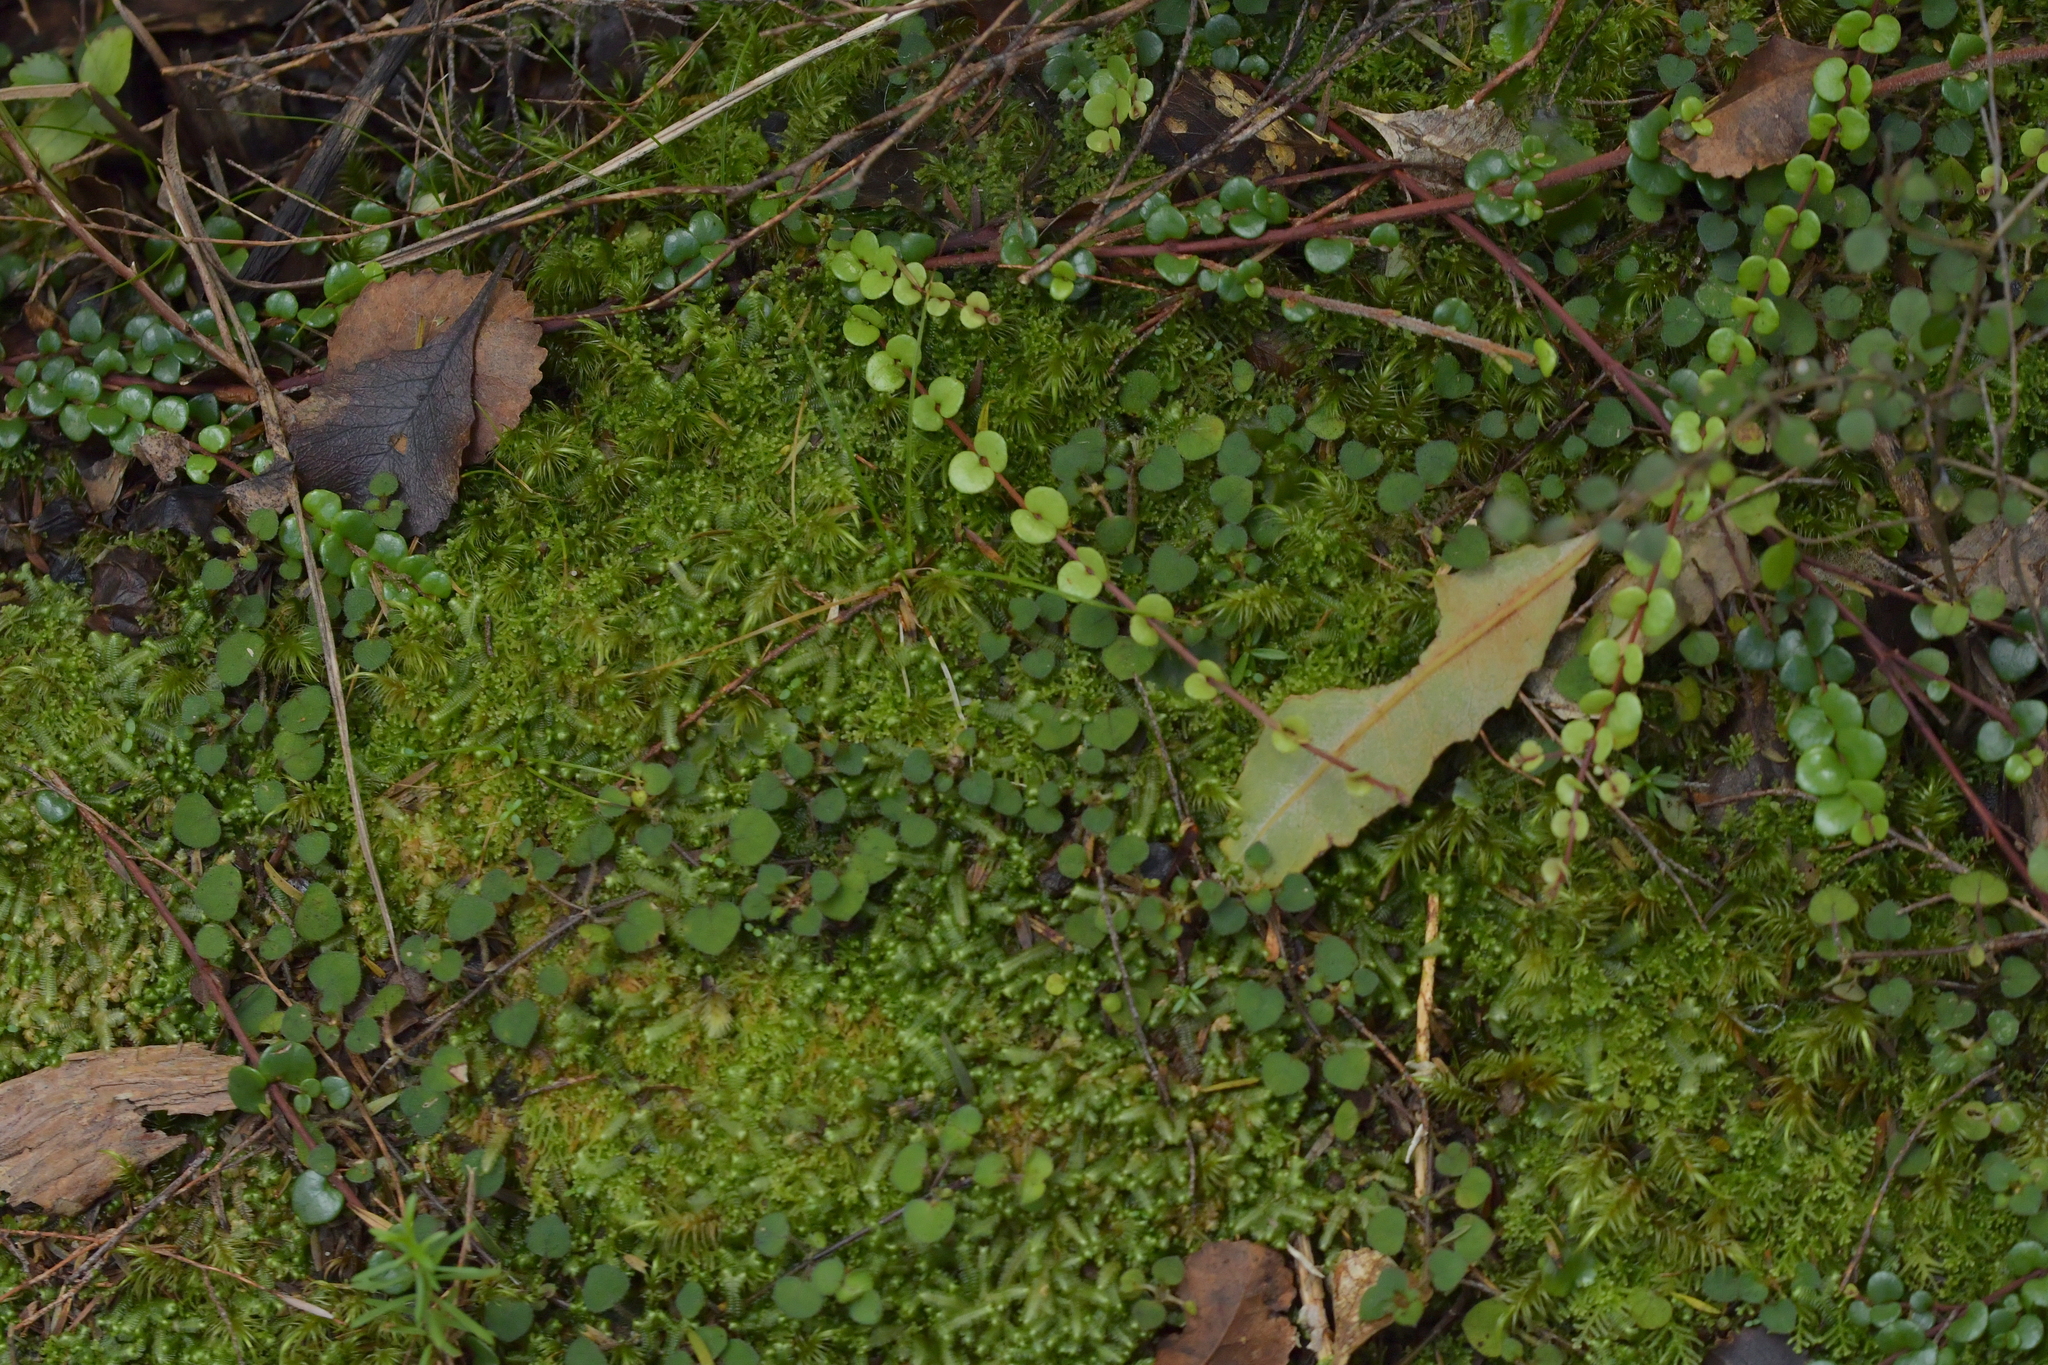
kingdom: Plantae
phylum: Tracheophyta
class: Magnoliopsida
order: Myrtales
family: Myrtaceae
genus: Metrosideros
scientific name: Metrosideros perforata
